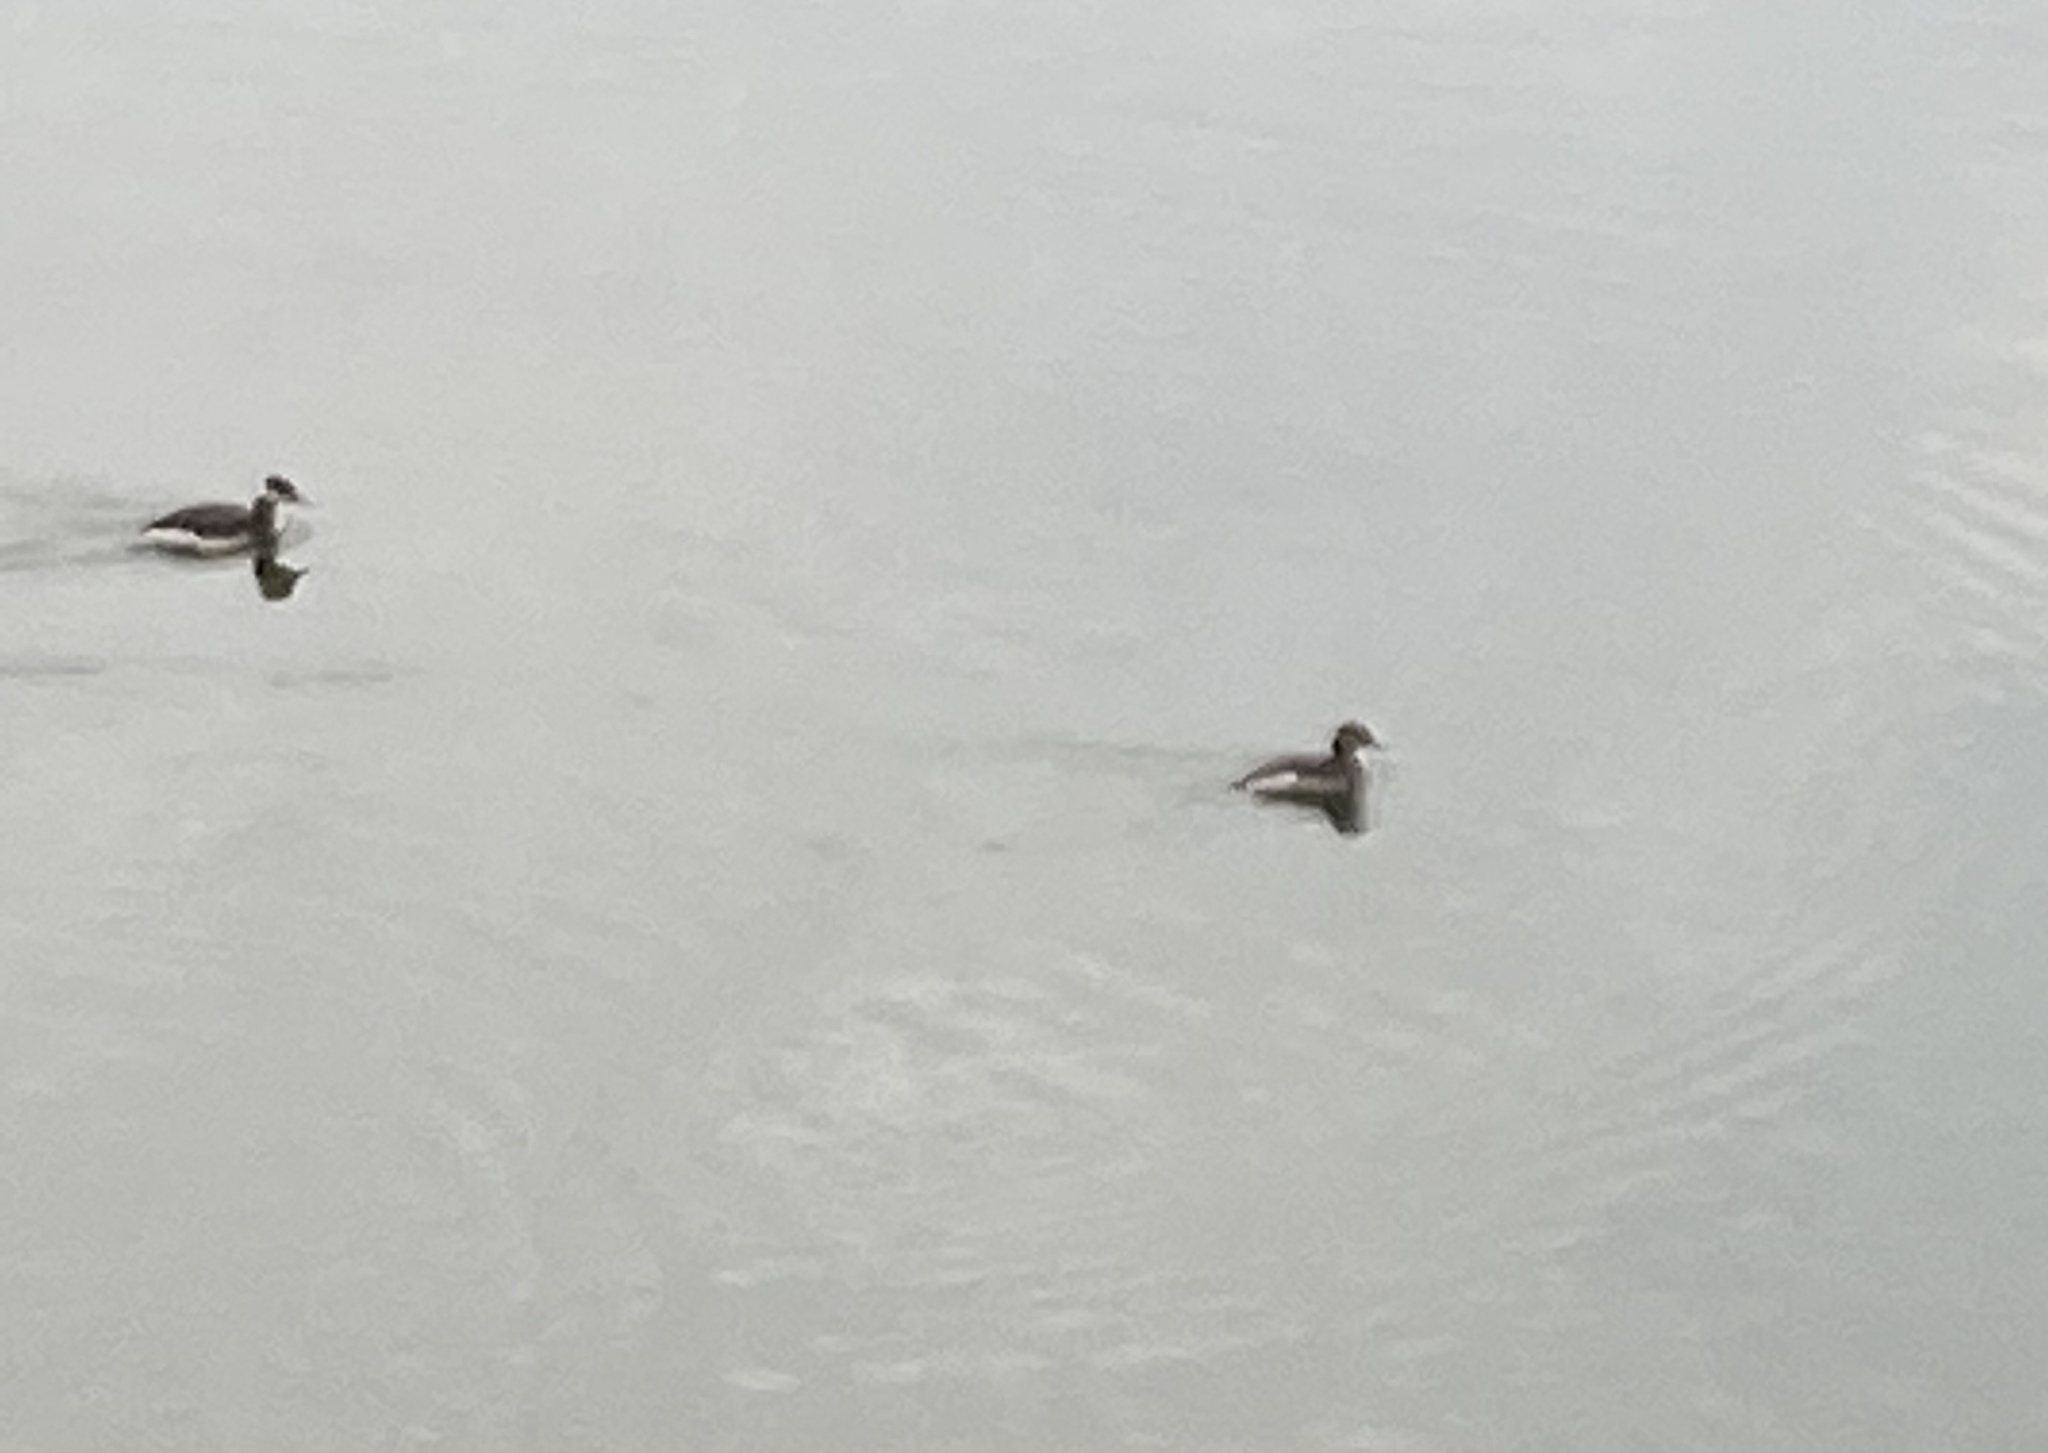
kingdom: Animalia
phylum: Chordata
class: Aves
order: Podicipediformes
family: Podicipedidae
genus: Podiceps
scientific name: Podiceps auritus
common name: Horned grebe
